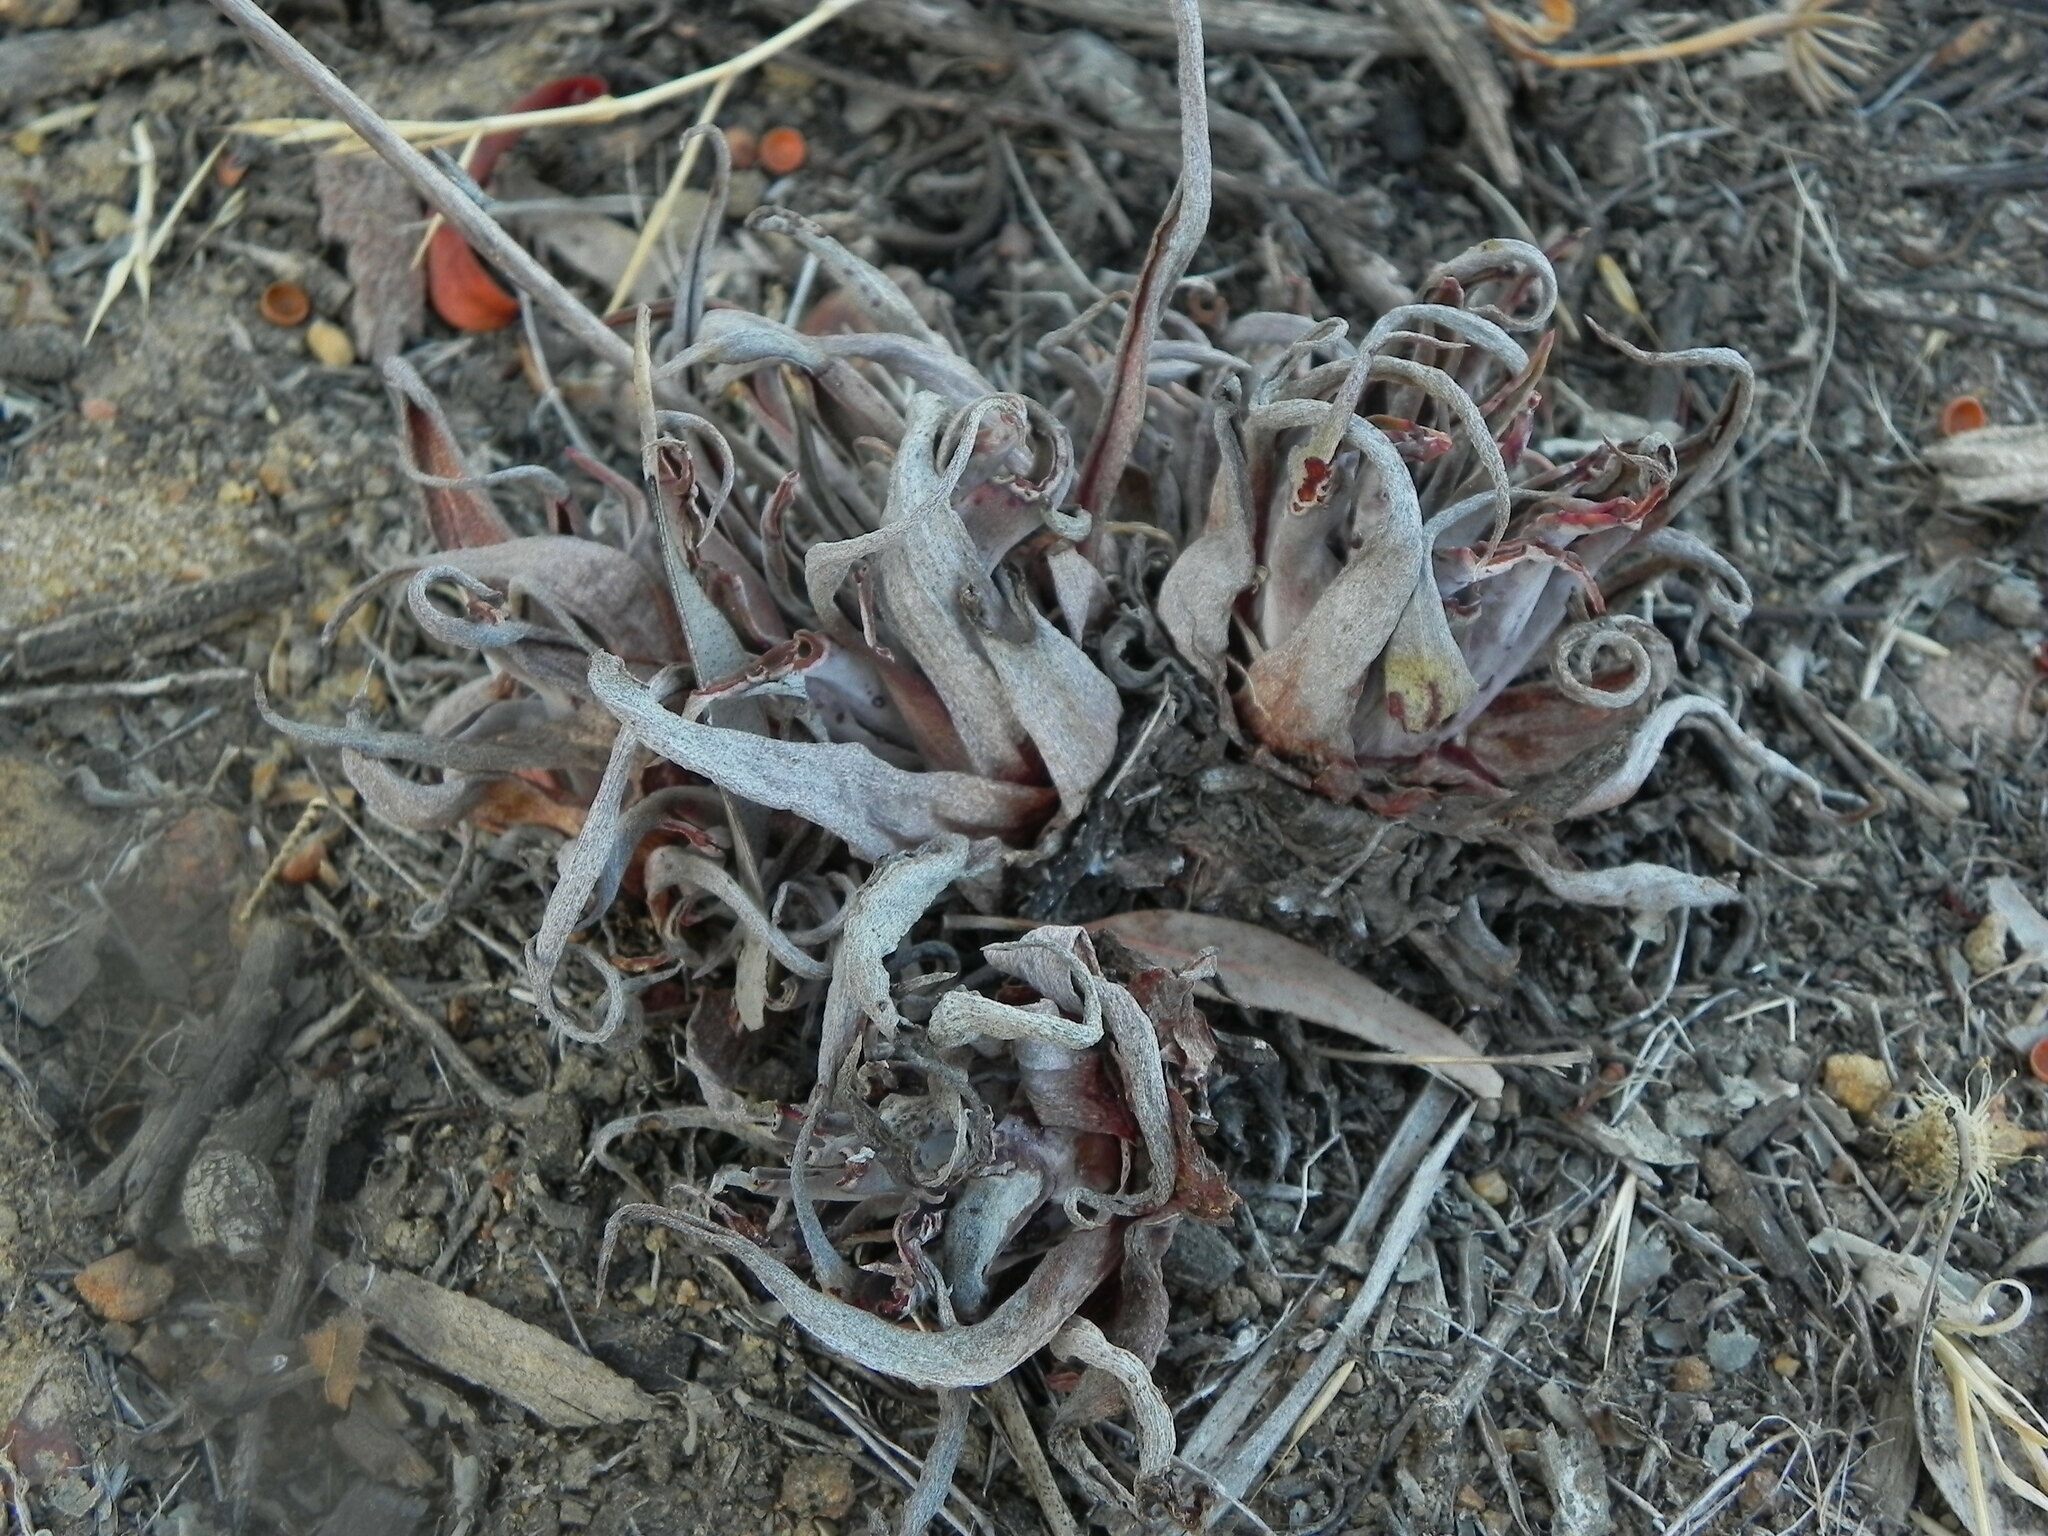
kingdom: Plantae
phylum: Tracheophyta
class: Magnoliopsida
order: Saxifragales
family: Crassulaceae
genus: Dudleya
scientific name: Dudleya lanceolata
